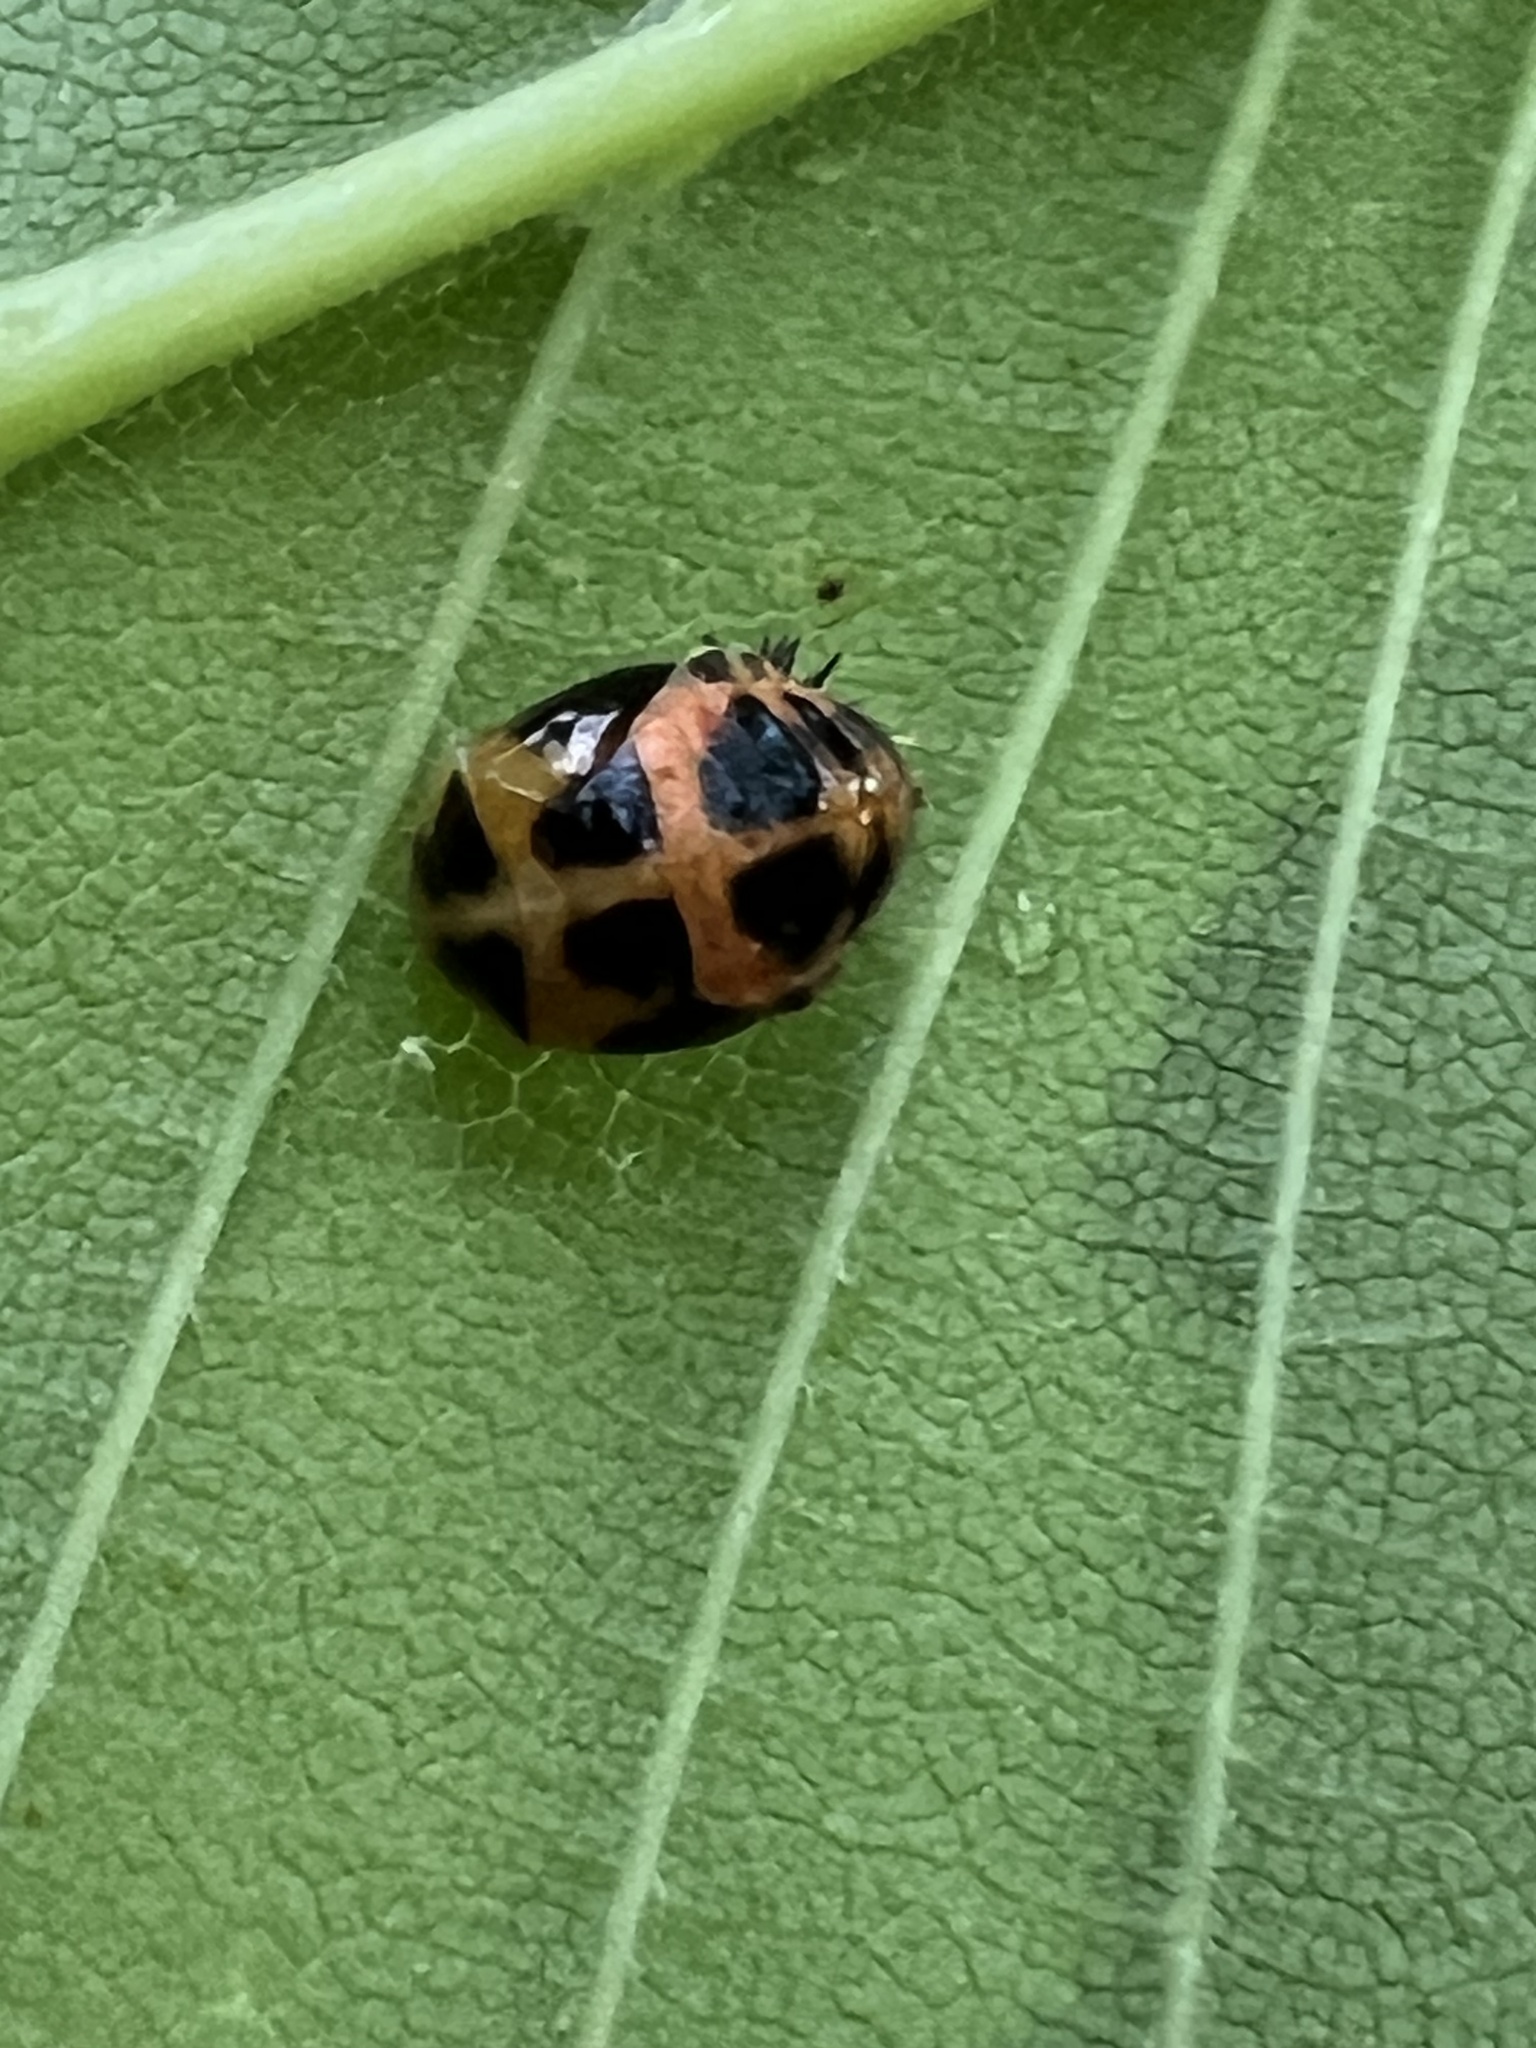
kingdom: Animalia
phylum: Arthropoda
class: Insecta
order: Coleoptera
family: Coccinellidae
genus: Harmonia
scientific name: Harmonia axyridis
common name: Harlequin ladybird
